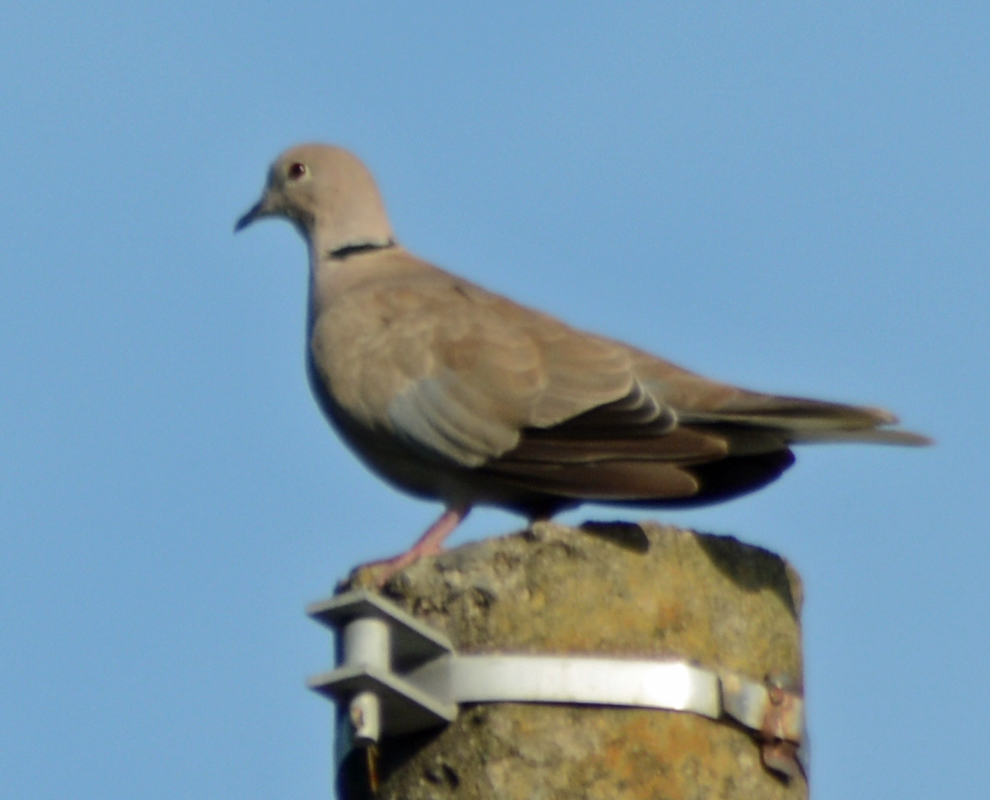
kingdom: Animalia
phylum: Chordata
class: Aves
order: Columbiformes
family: Columbidae
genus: Streptopelia
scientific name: Streptopelia decaocto
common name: Eurasian collared dove
